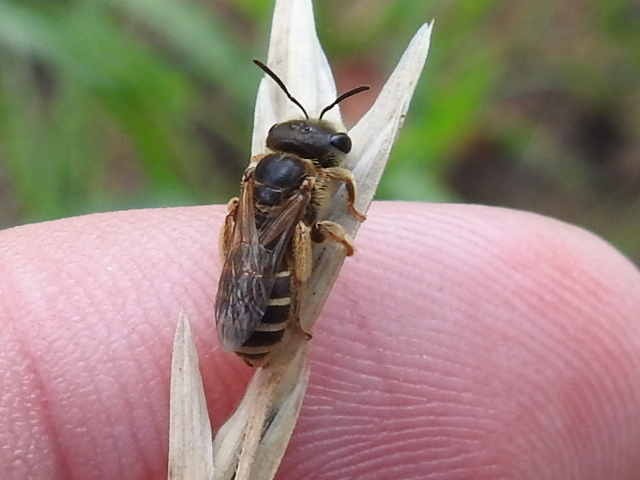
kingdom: Animalia
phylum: Arthropoda
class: Insecta
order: Hymenoptera
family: Halictidae
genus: Halictus
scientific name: Halictus ligatus
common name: Ligated furrow bee
